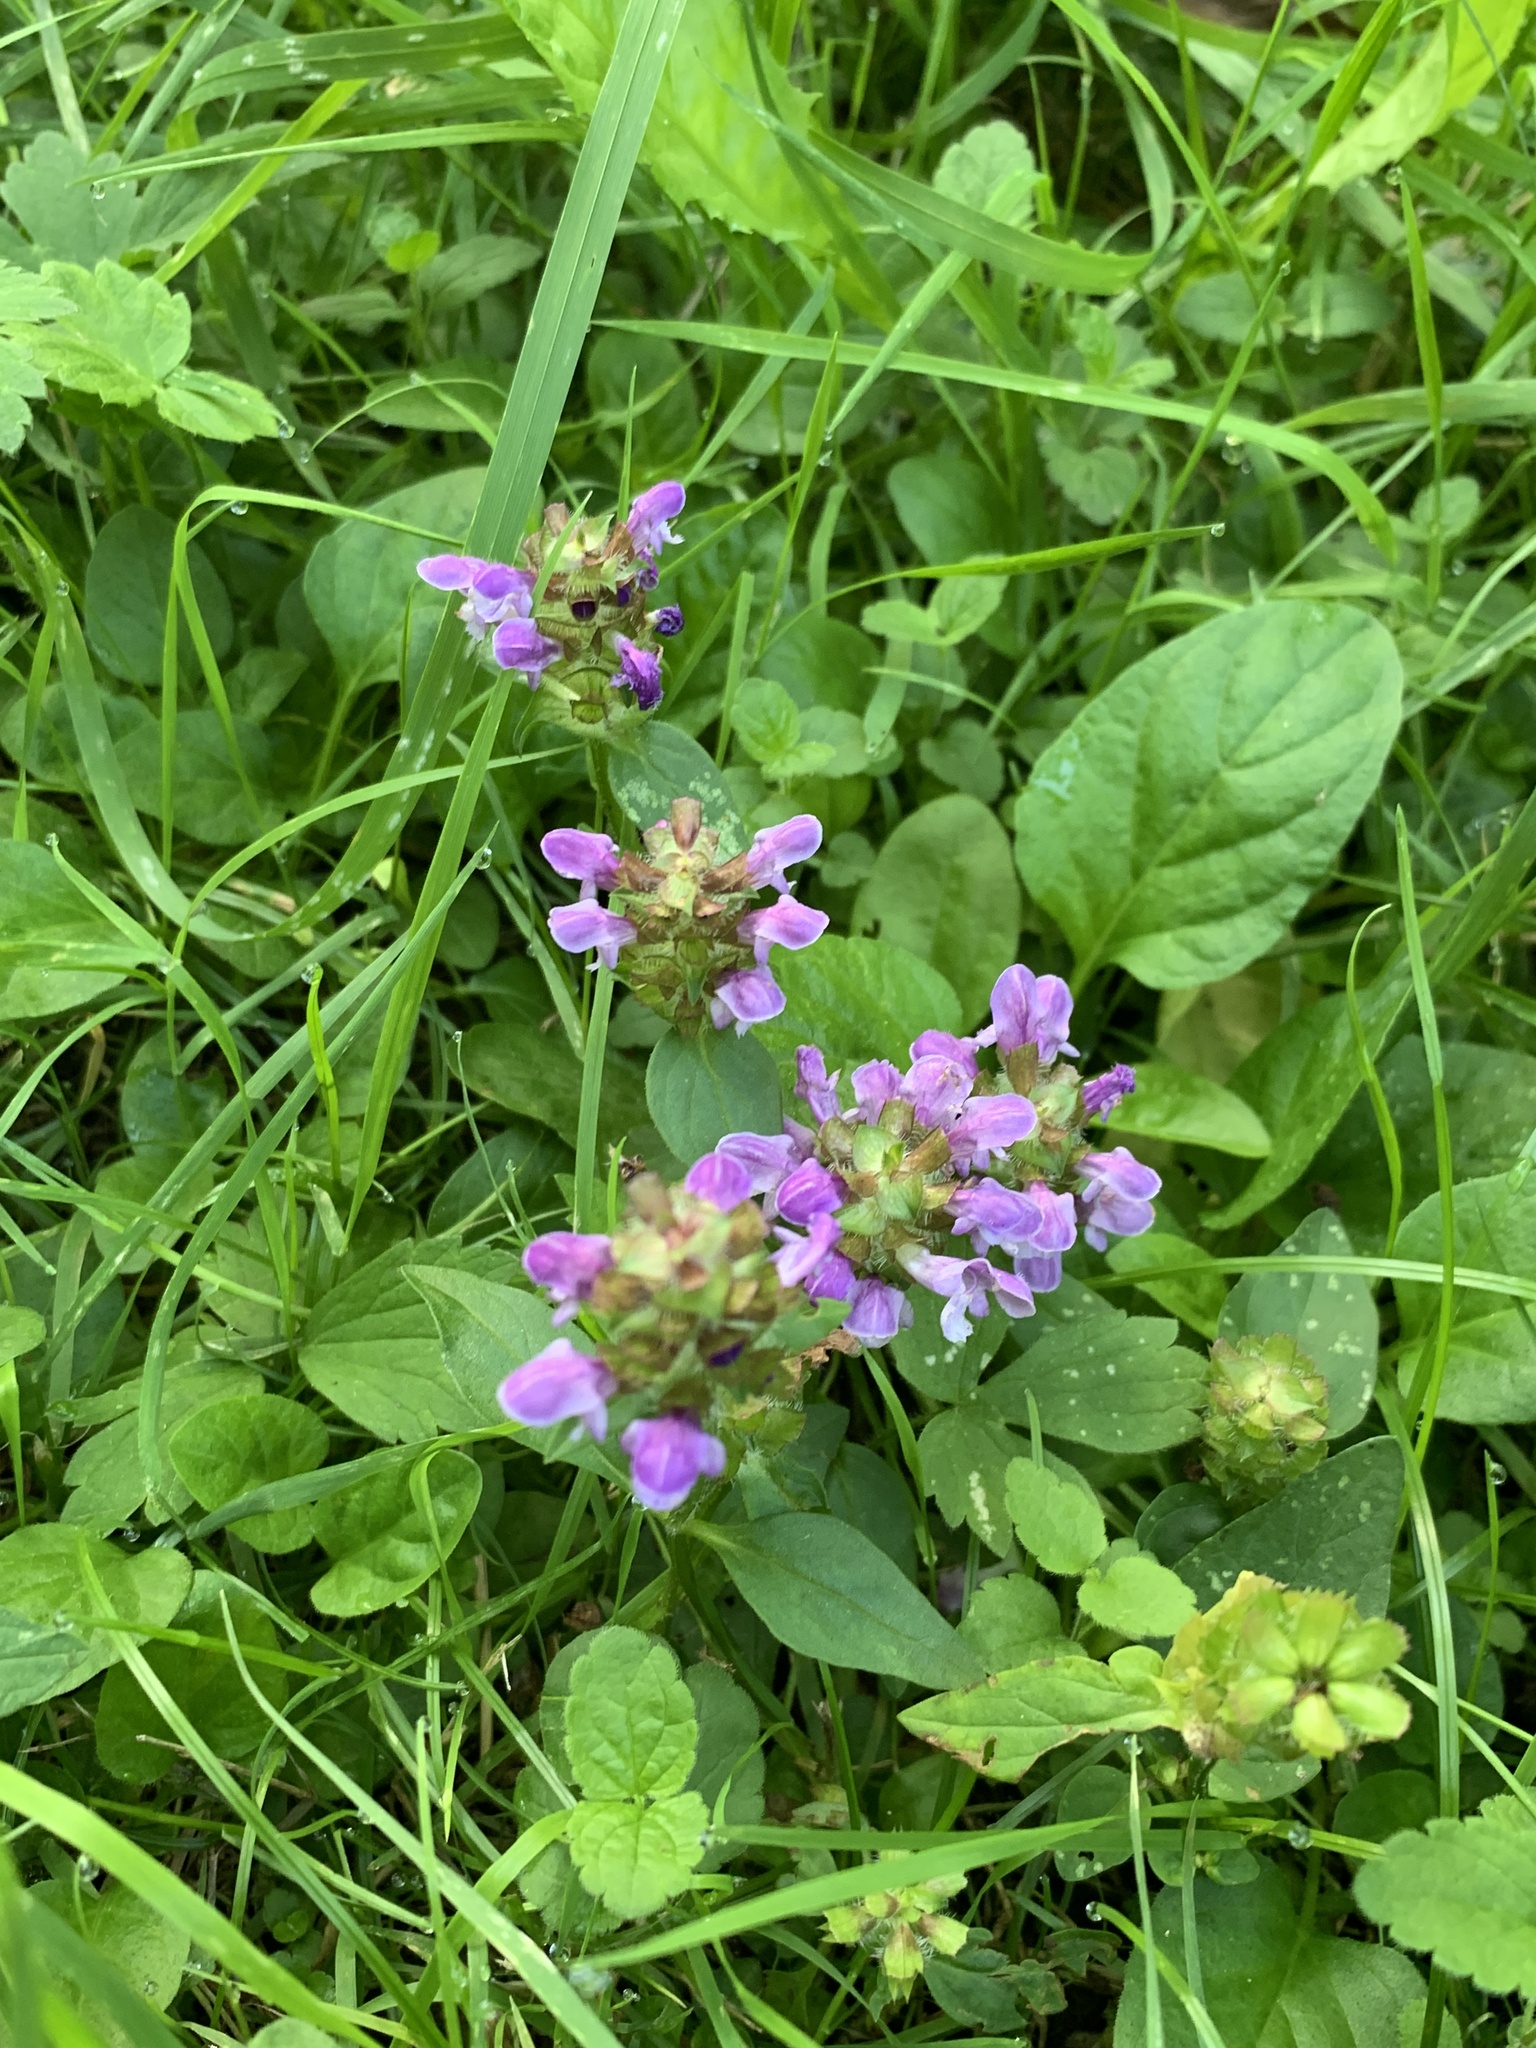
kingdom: Plantae
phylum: Tracheophyta
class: Magnoliopsida
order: Lamiales
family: Lamiaceae
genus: Prunella
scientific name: Prunella vulgaris
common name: Heal-all
